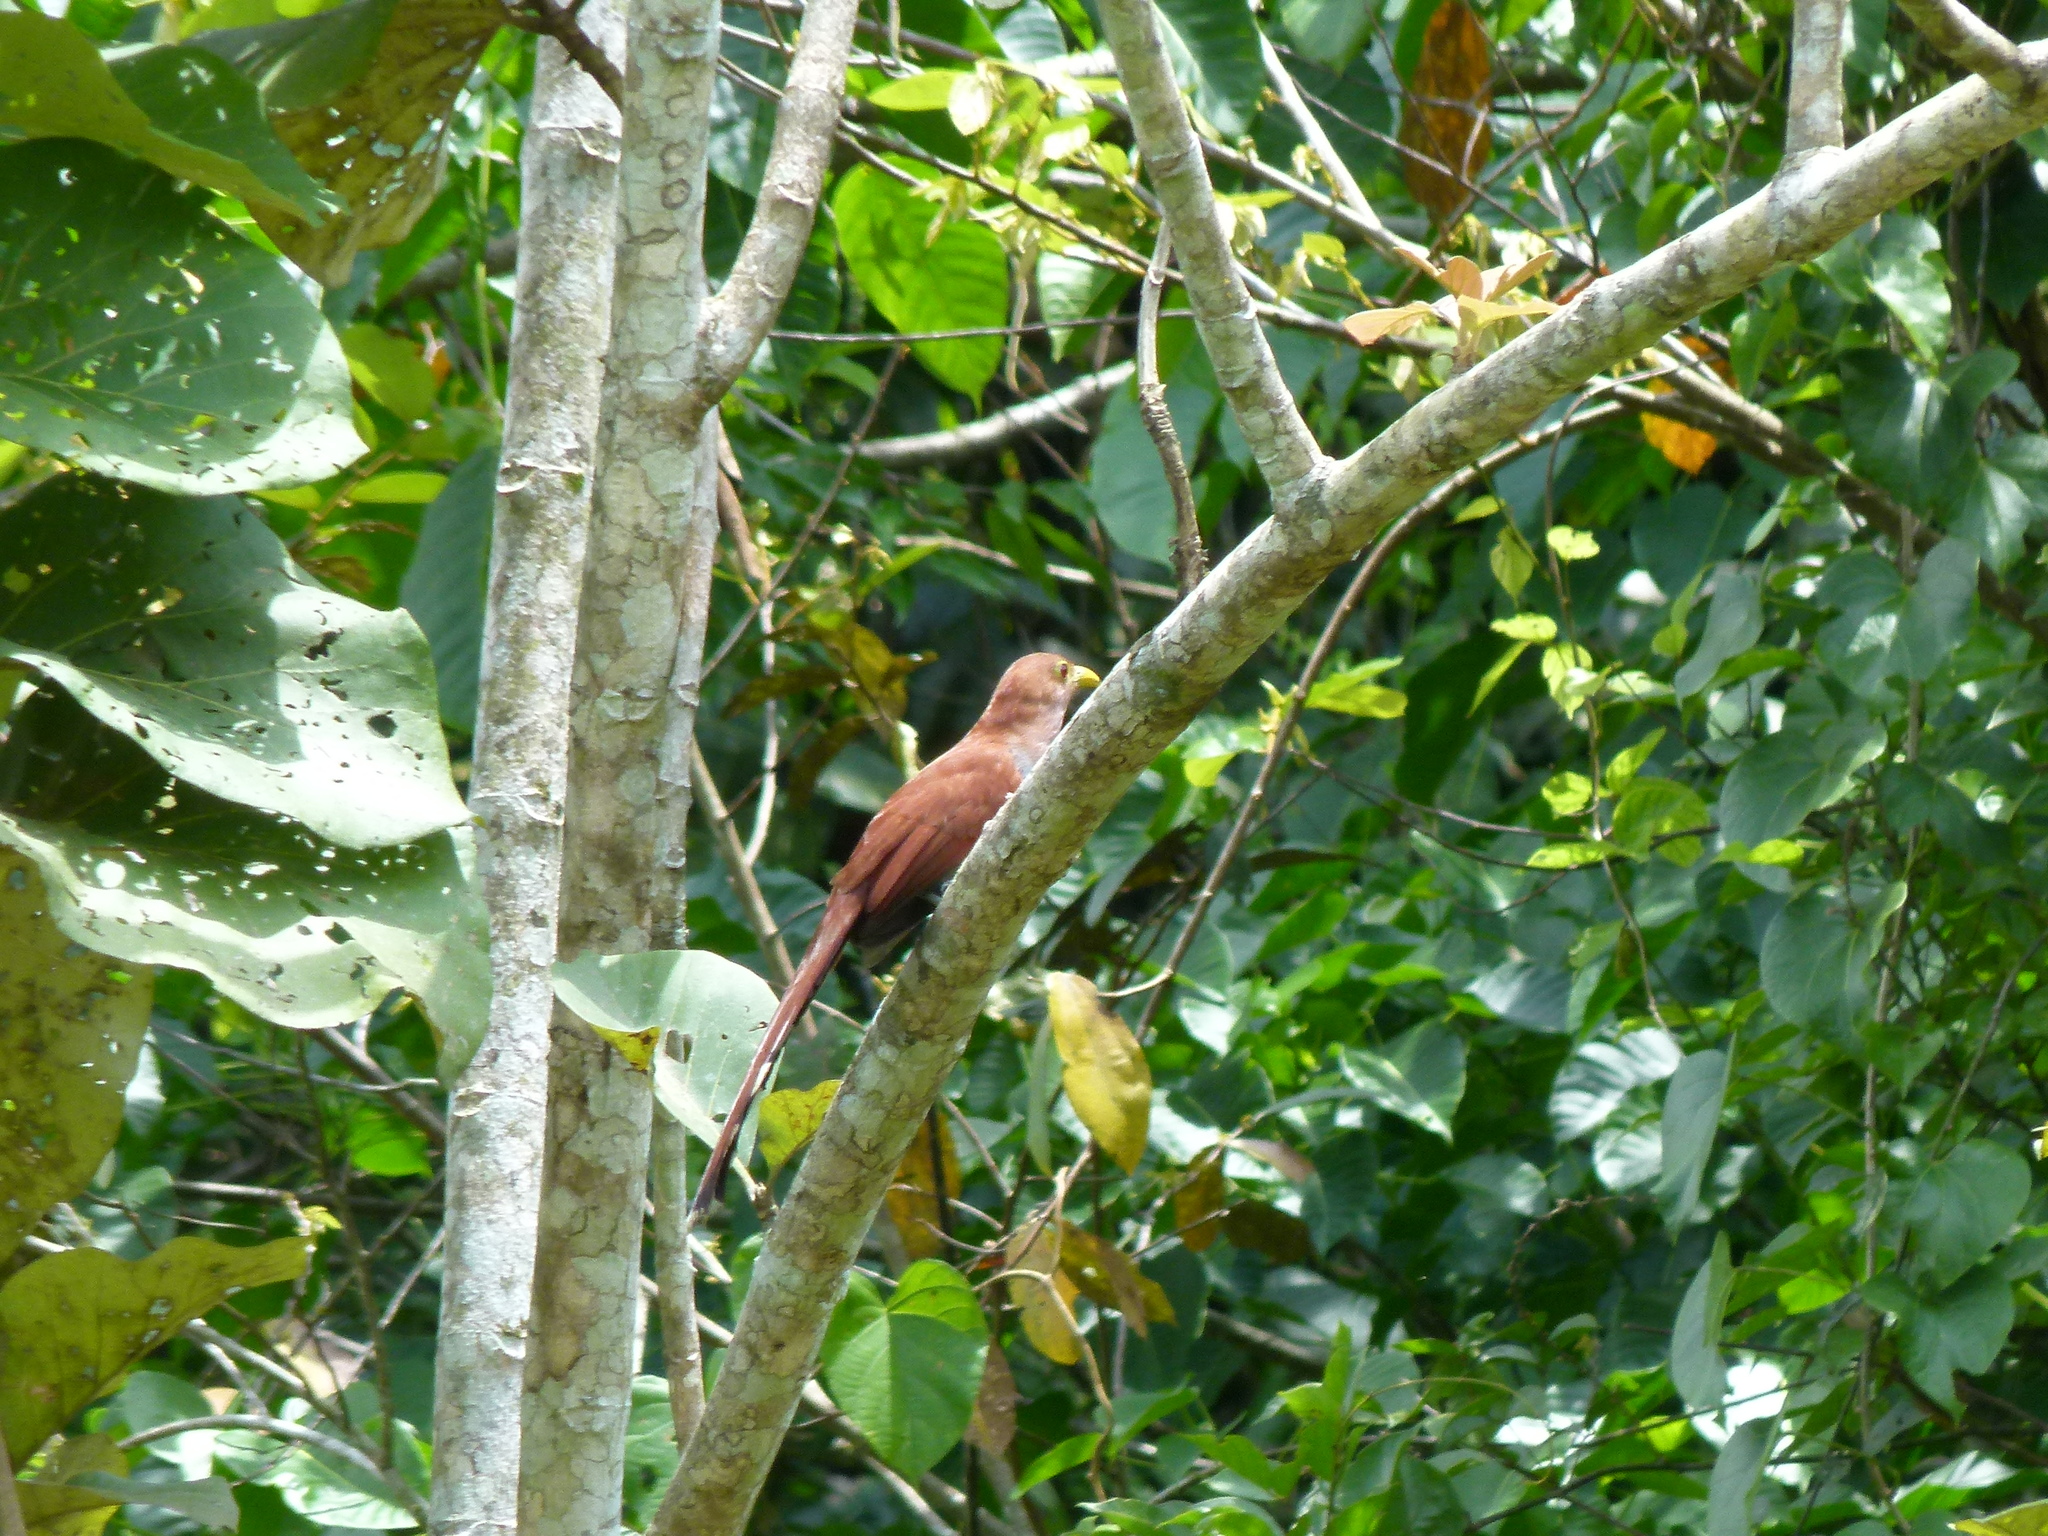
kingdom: Animalia
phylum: Chordata
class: Aves
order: Cuculiformes
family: Cuculidae
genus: Piaya
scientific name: Piaya cayana
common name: Squirrel cuckoo
